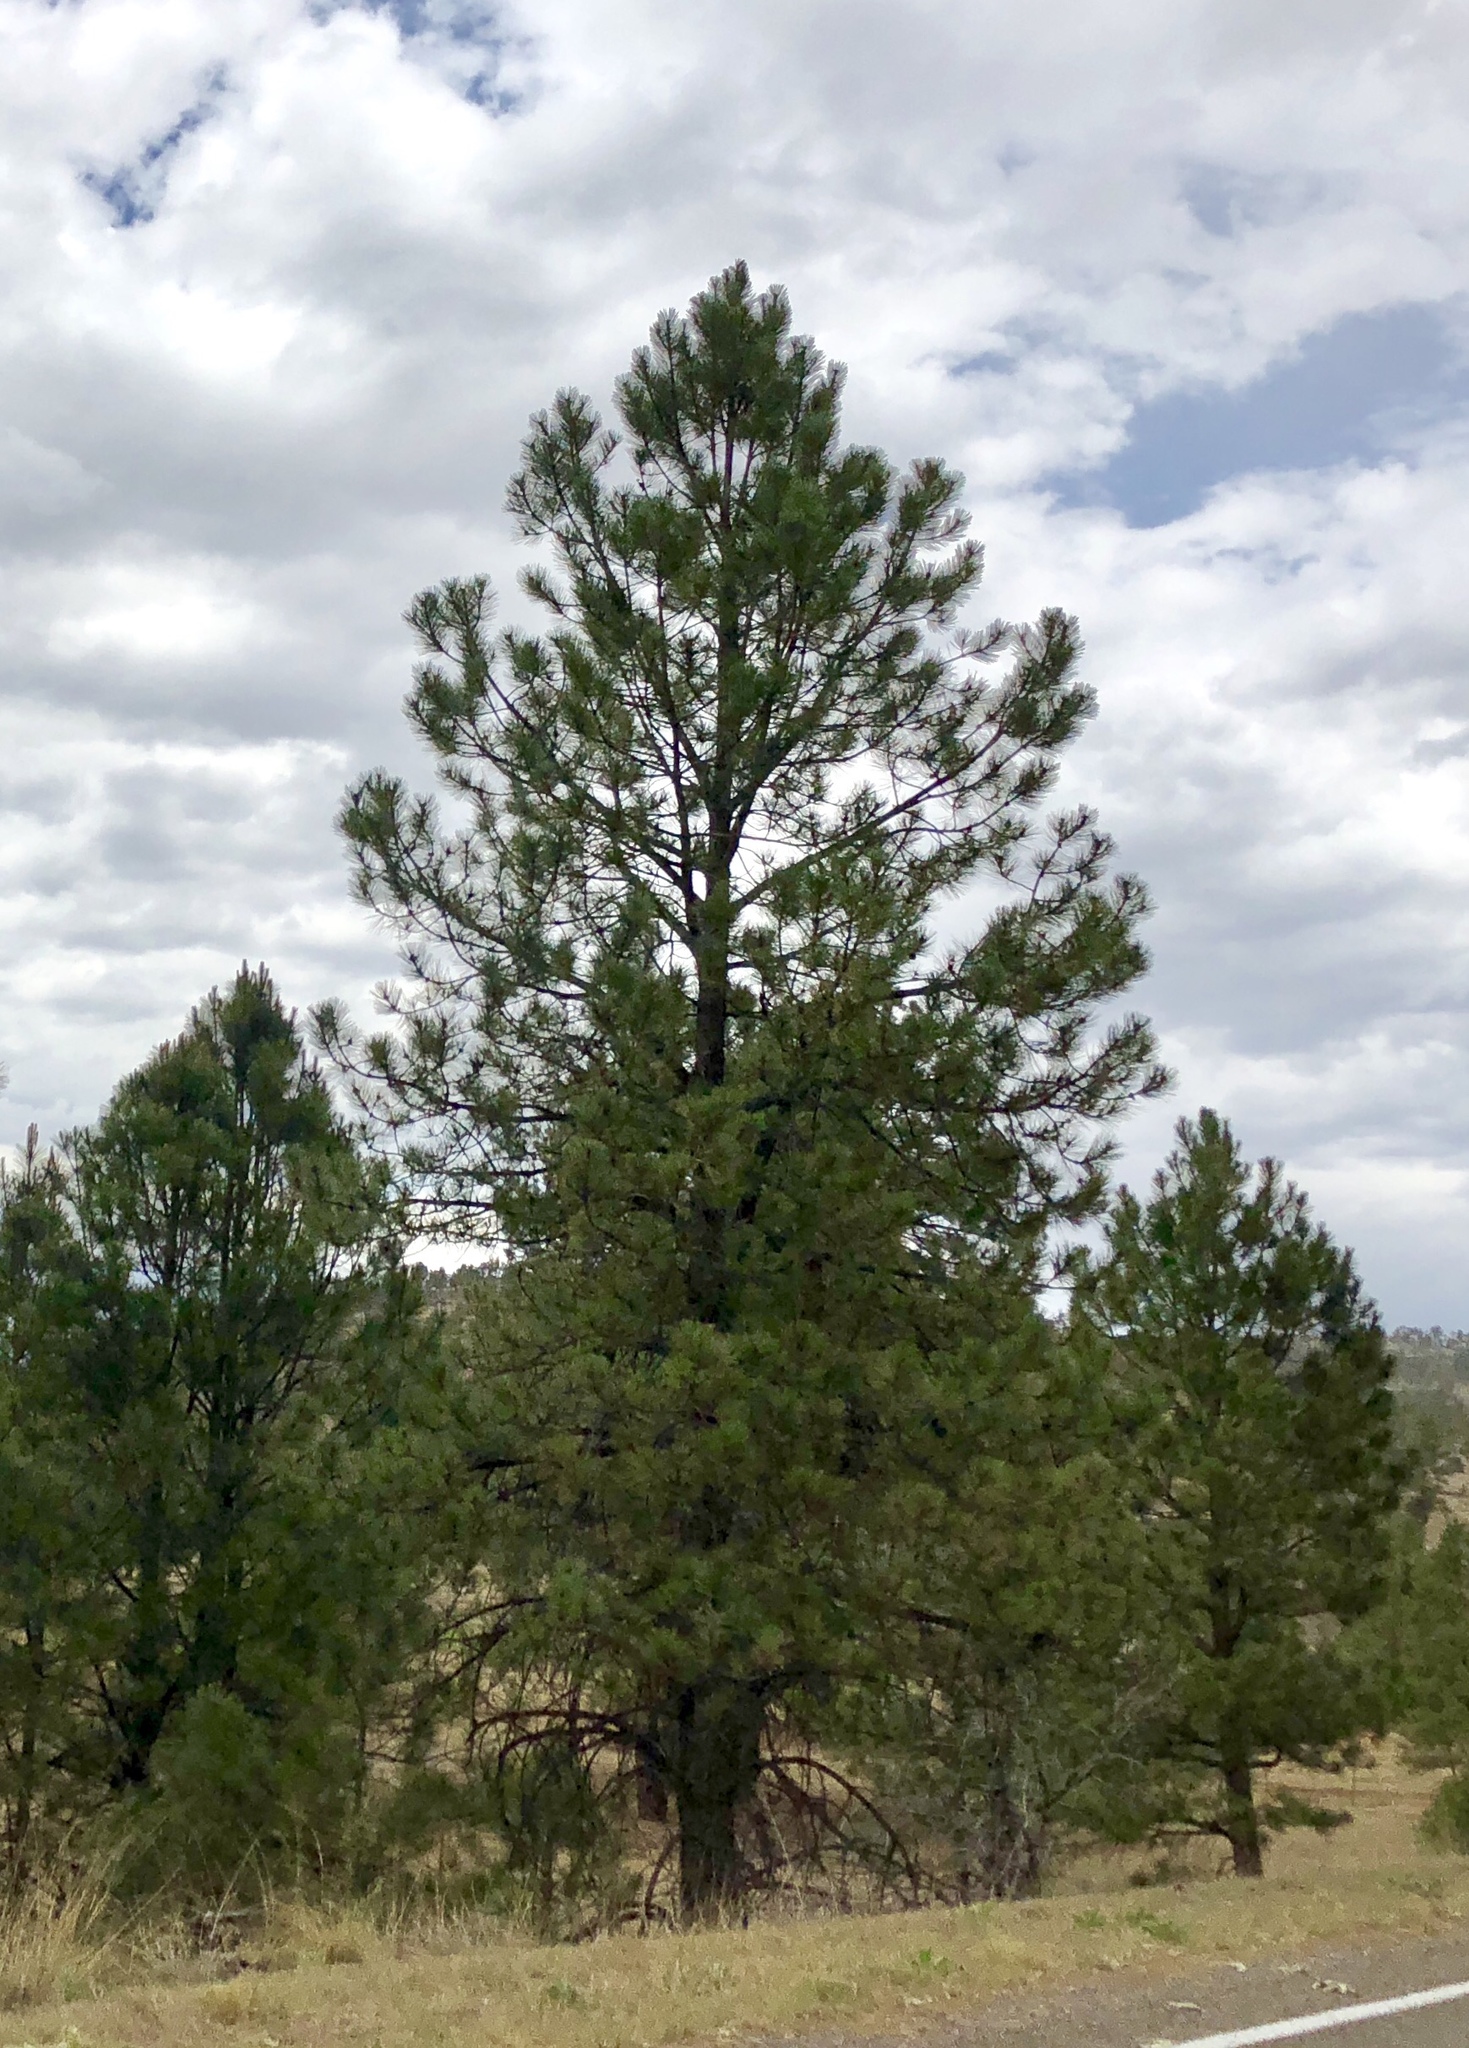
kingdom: Plantae
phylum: Tracheophyta
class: Pinopsida
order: Pinales
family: Pinaceae
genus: Pinus
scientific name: Pinus ponderosa
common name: Western yellow-pine
